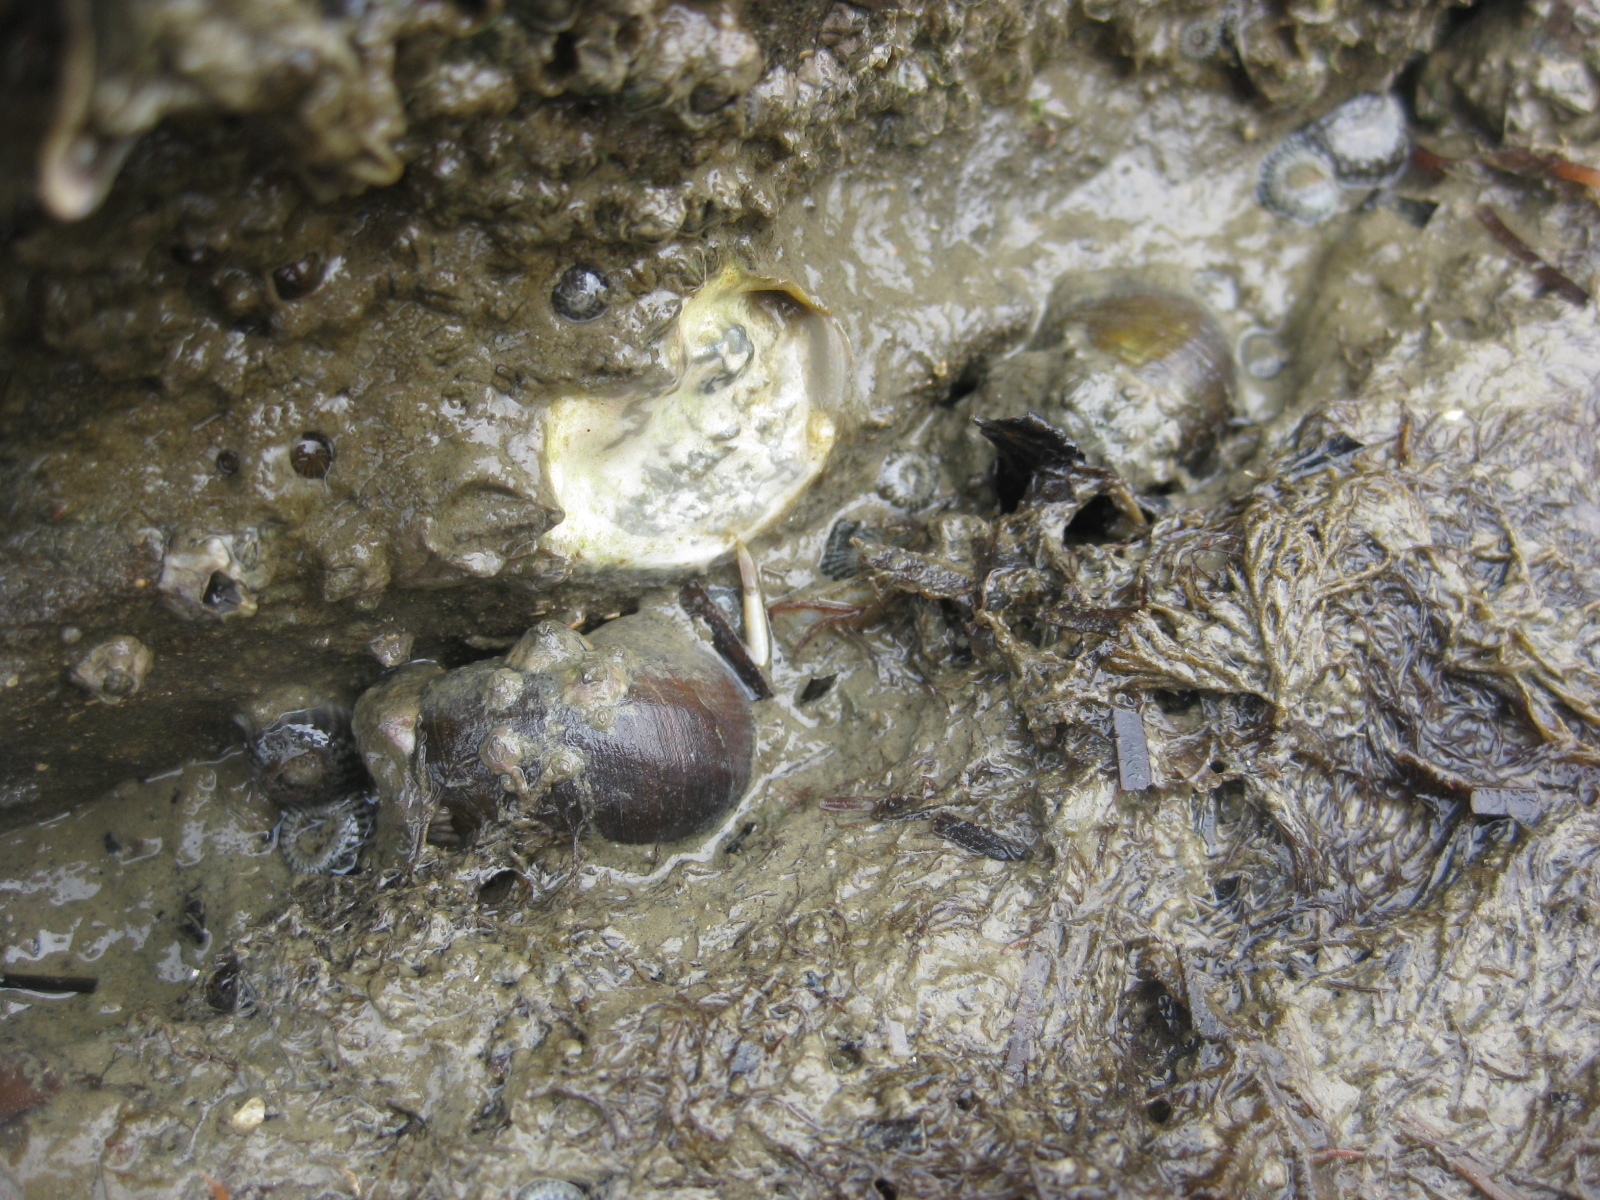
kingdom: Animalia
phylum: Mollusca
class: Gastropoda
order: Trochida
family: Turbinidae
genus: Lunella
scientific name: Lunella smaragda
